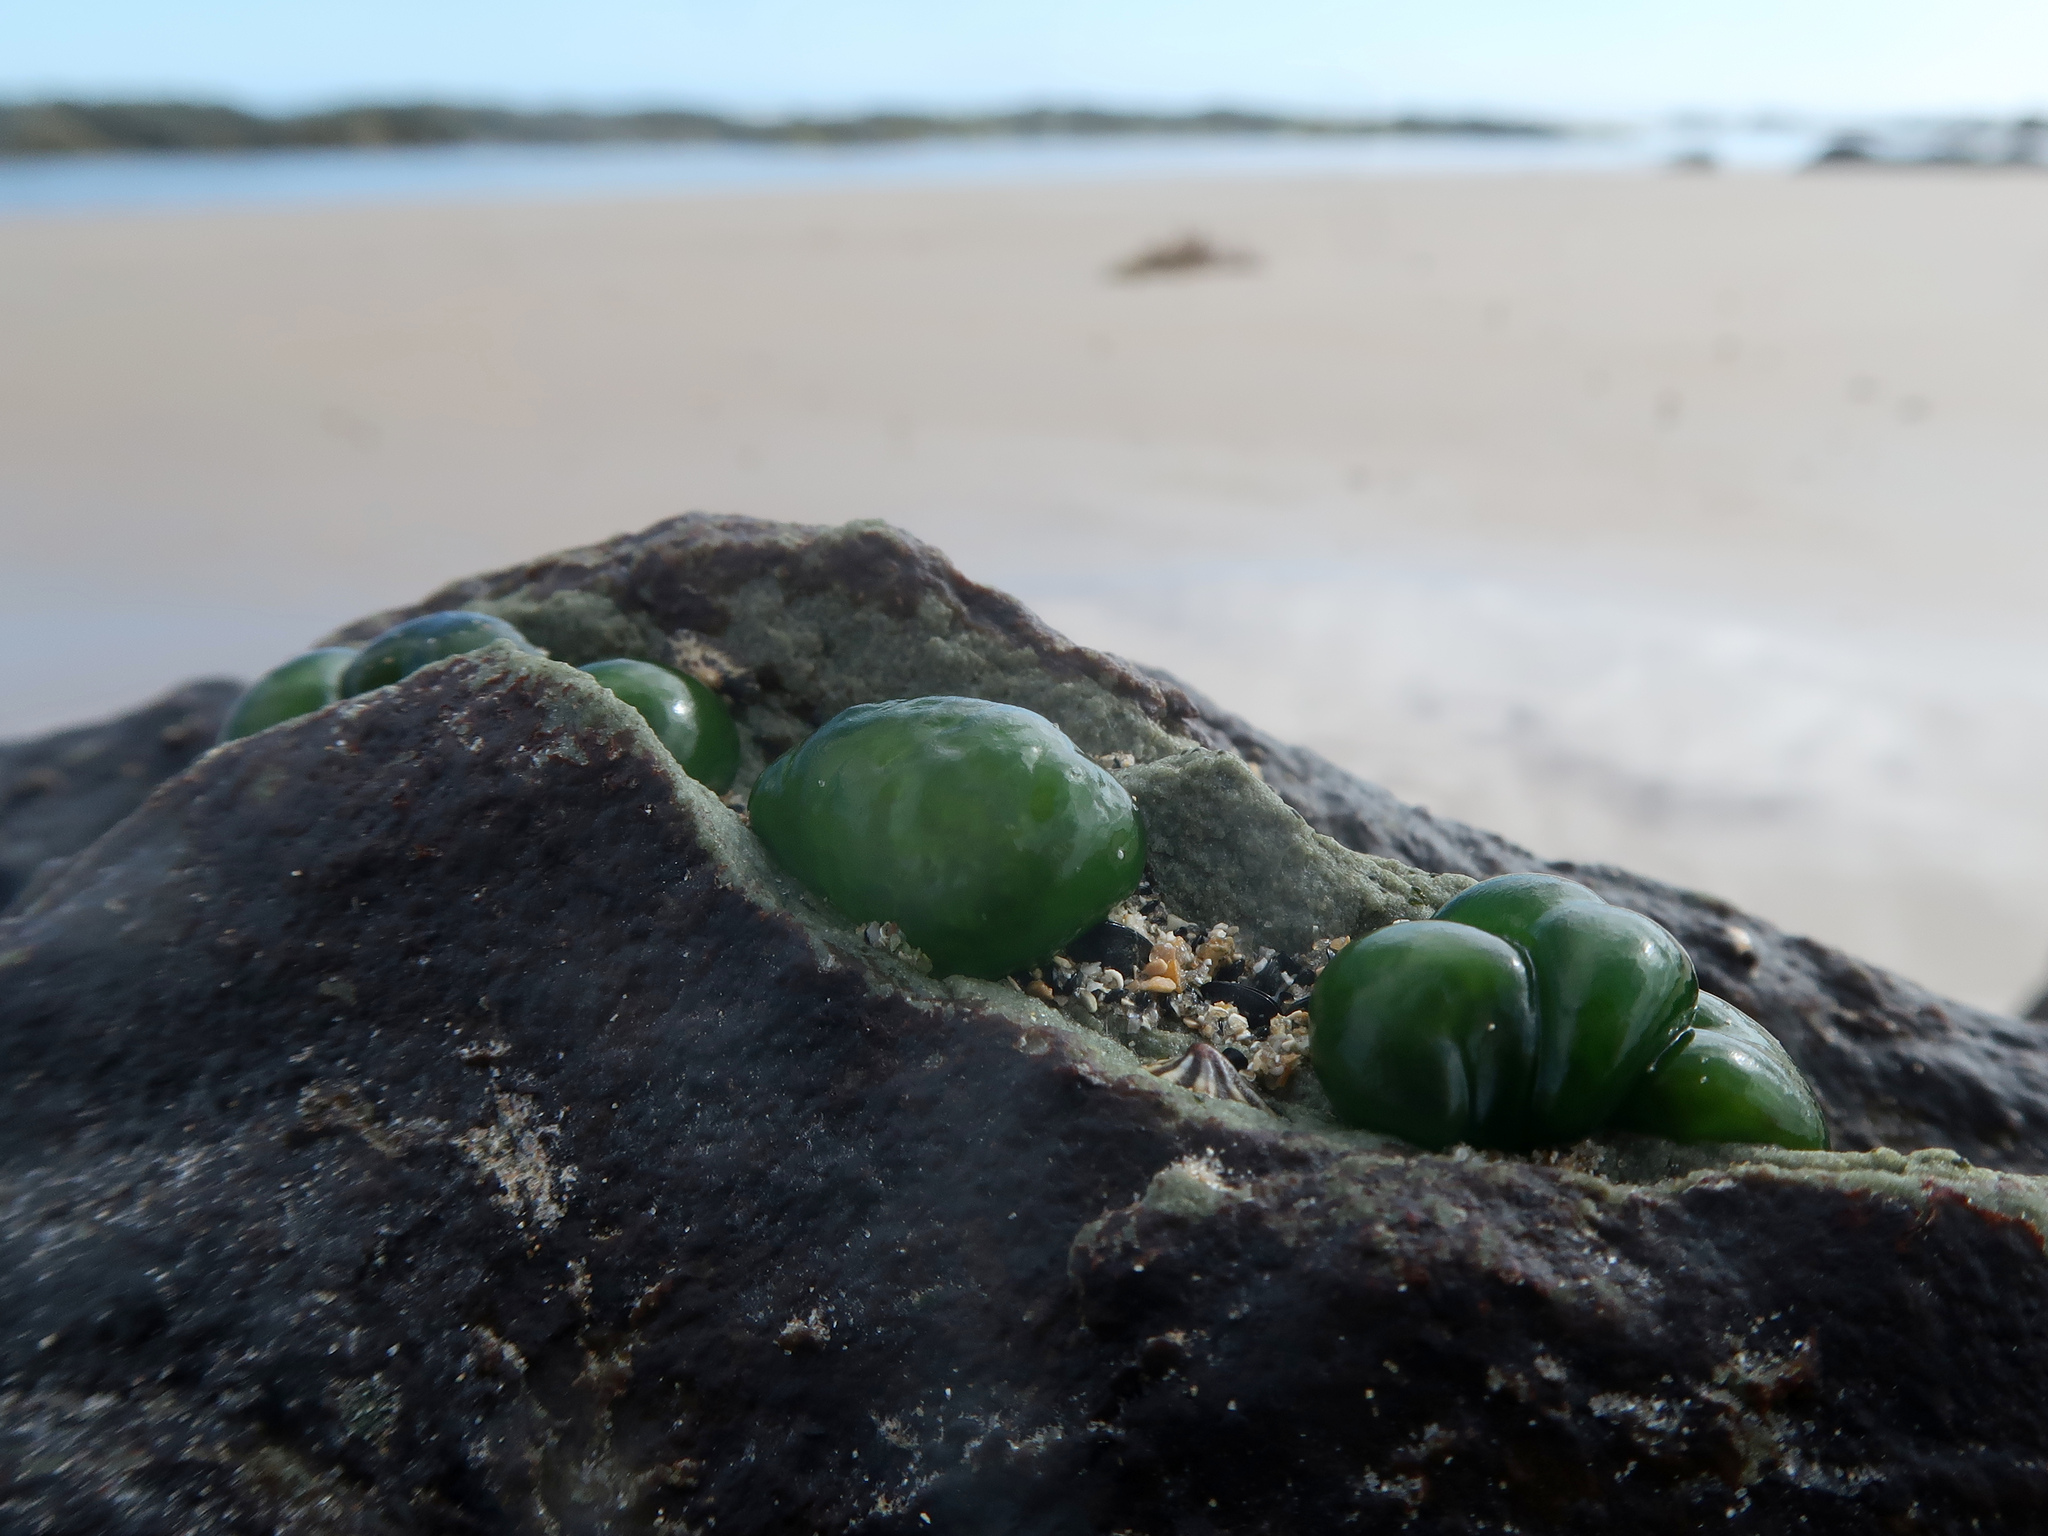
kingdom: Bacteria
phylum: Cyanobacteria
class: Cyanobacteriia
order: Cyanobacteriales
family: Rivulariaceae
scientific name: Rivulariaceae
